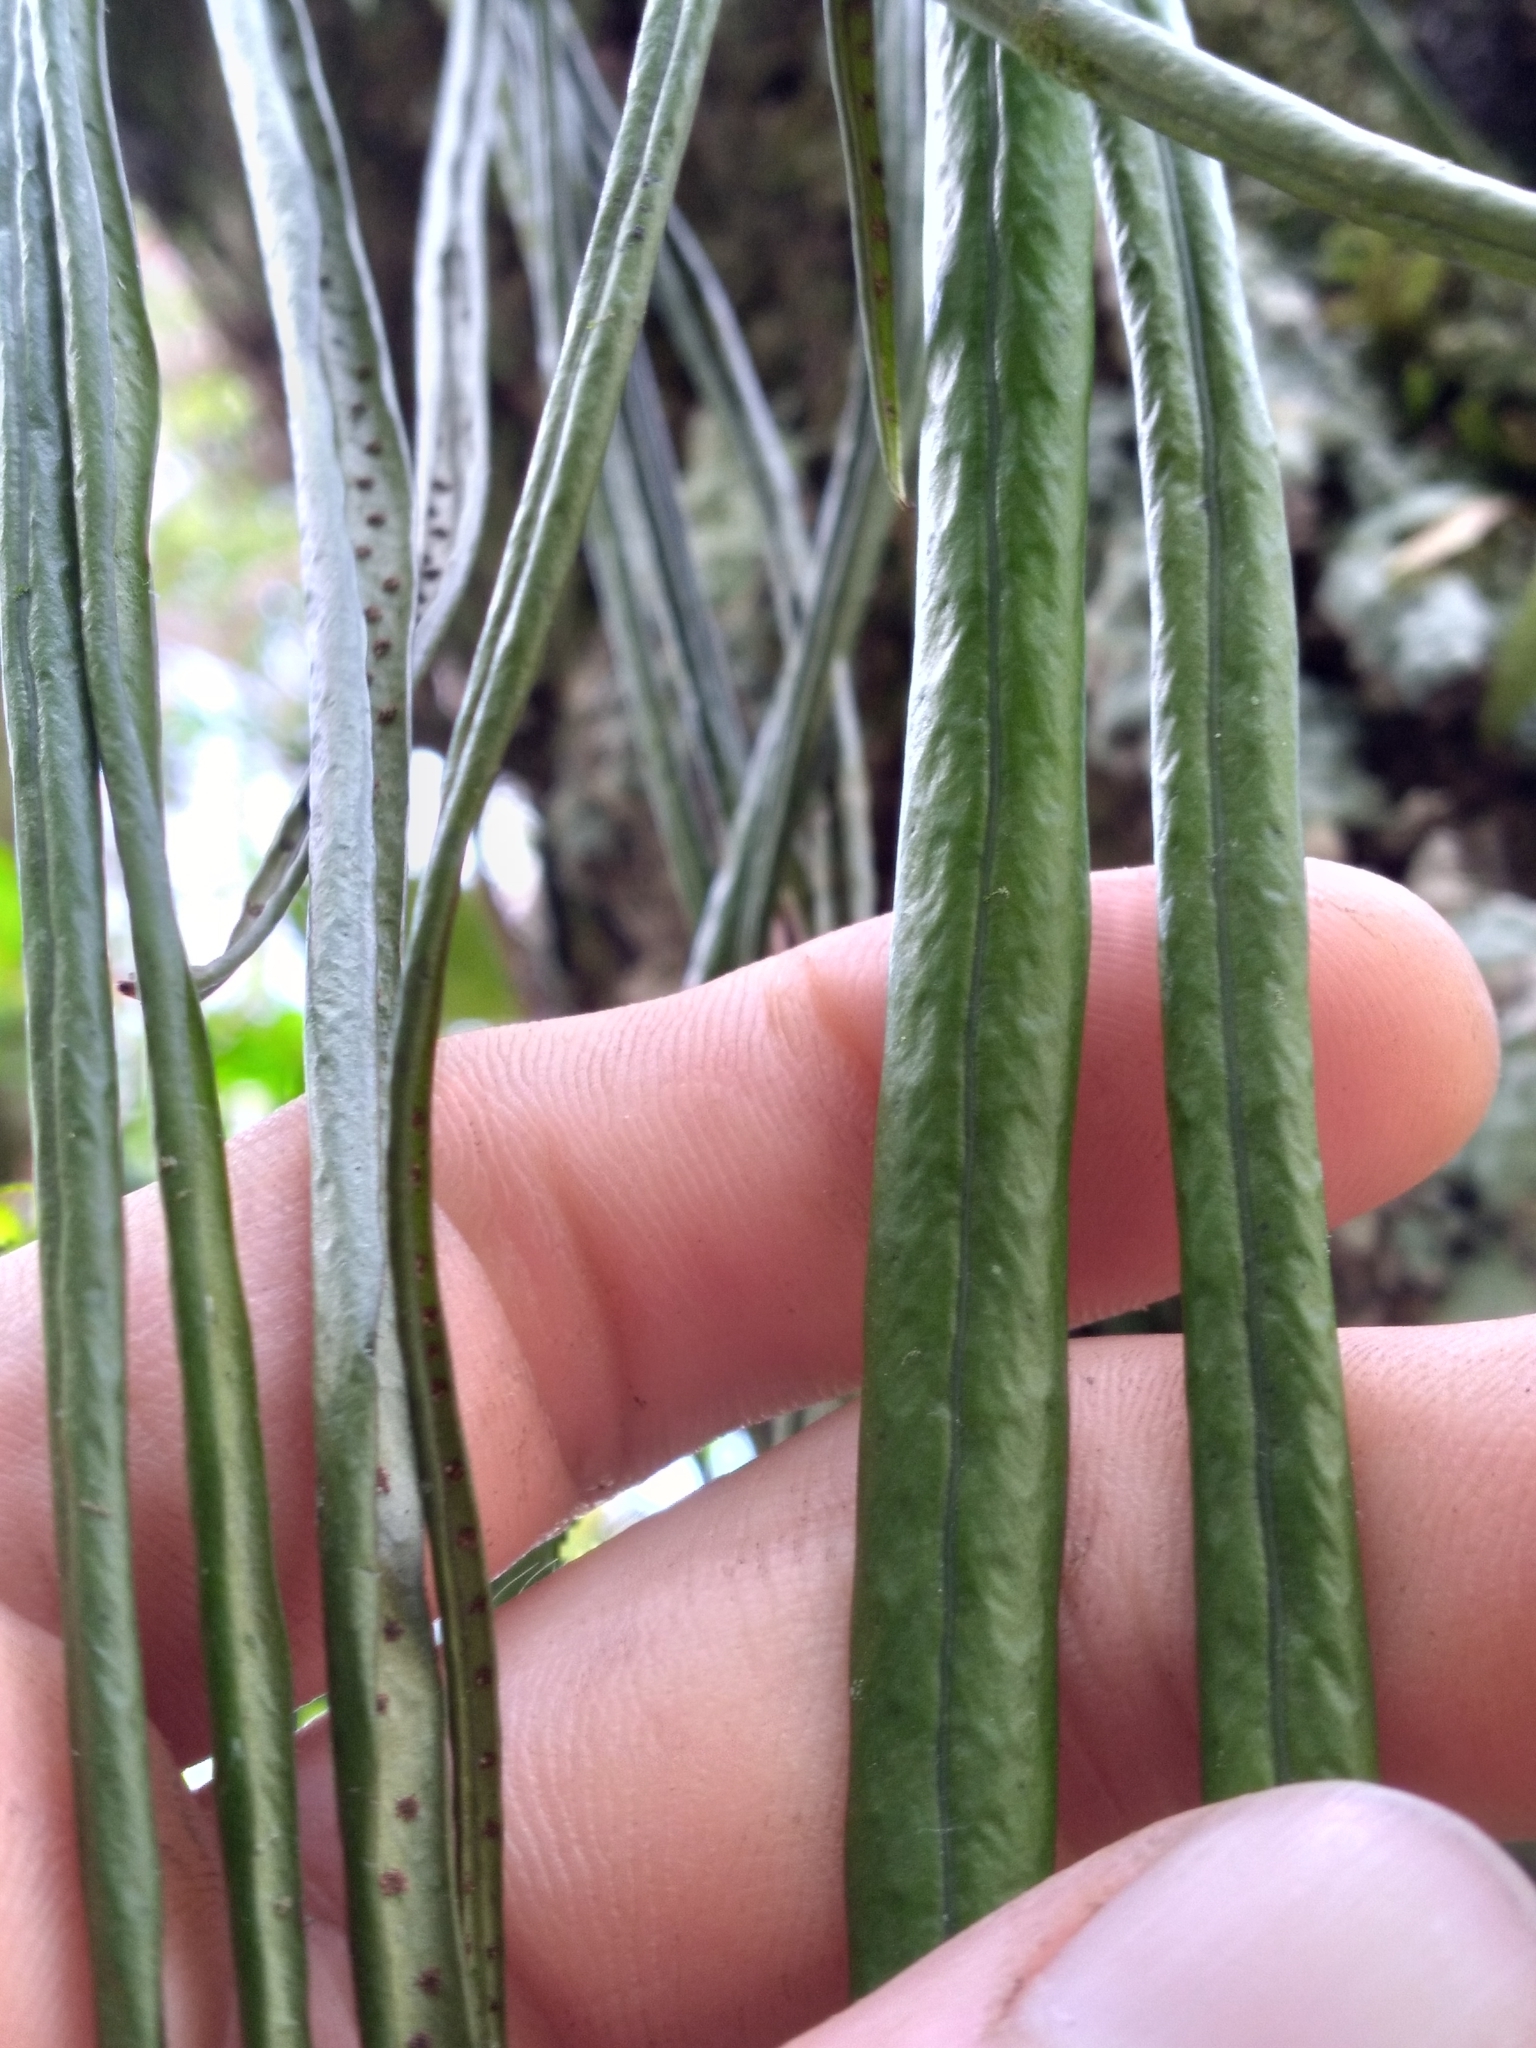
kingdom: Plantae
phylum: Tracheophyta
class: Polypodiopsida
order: Polypodiales
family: Polypodiaceae
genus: Campyloneurum
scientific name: Campyloneurum angustifolium
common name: Narrow-leaf strap fern
